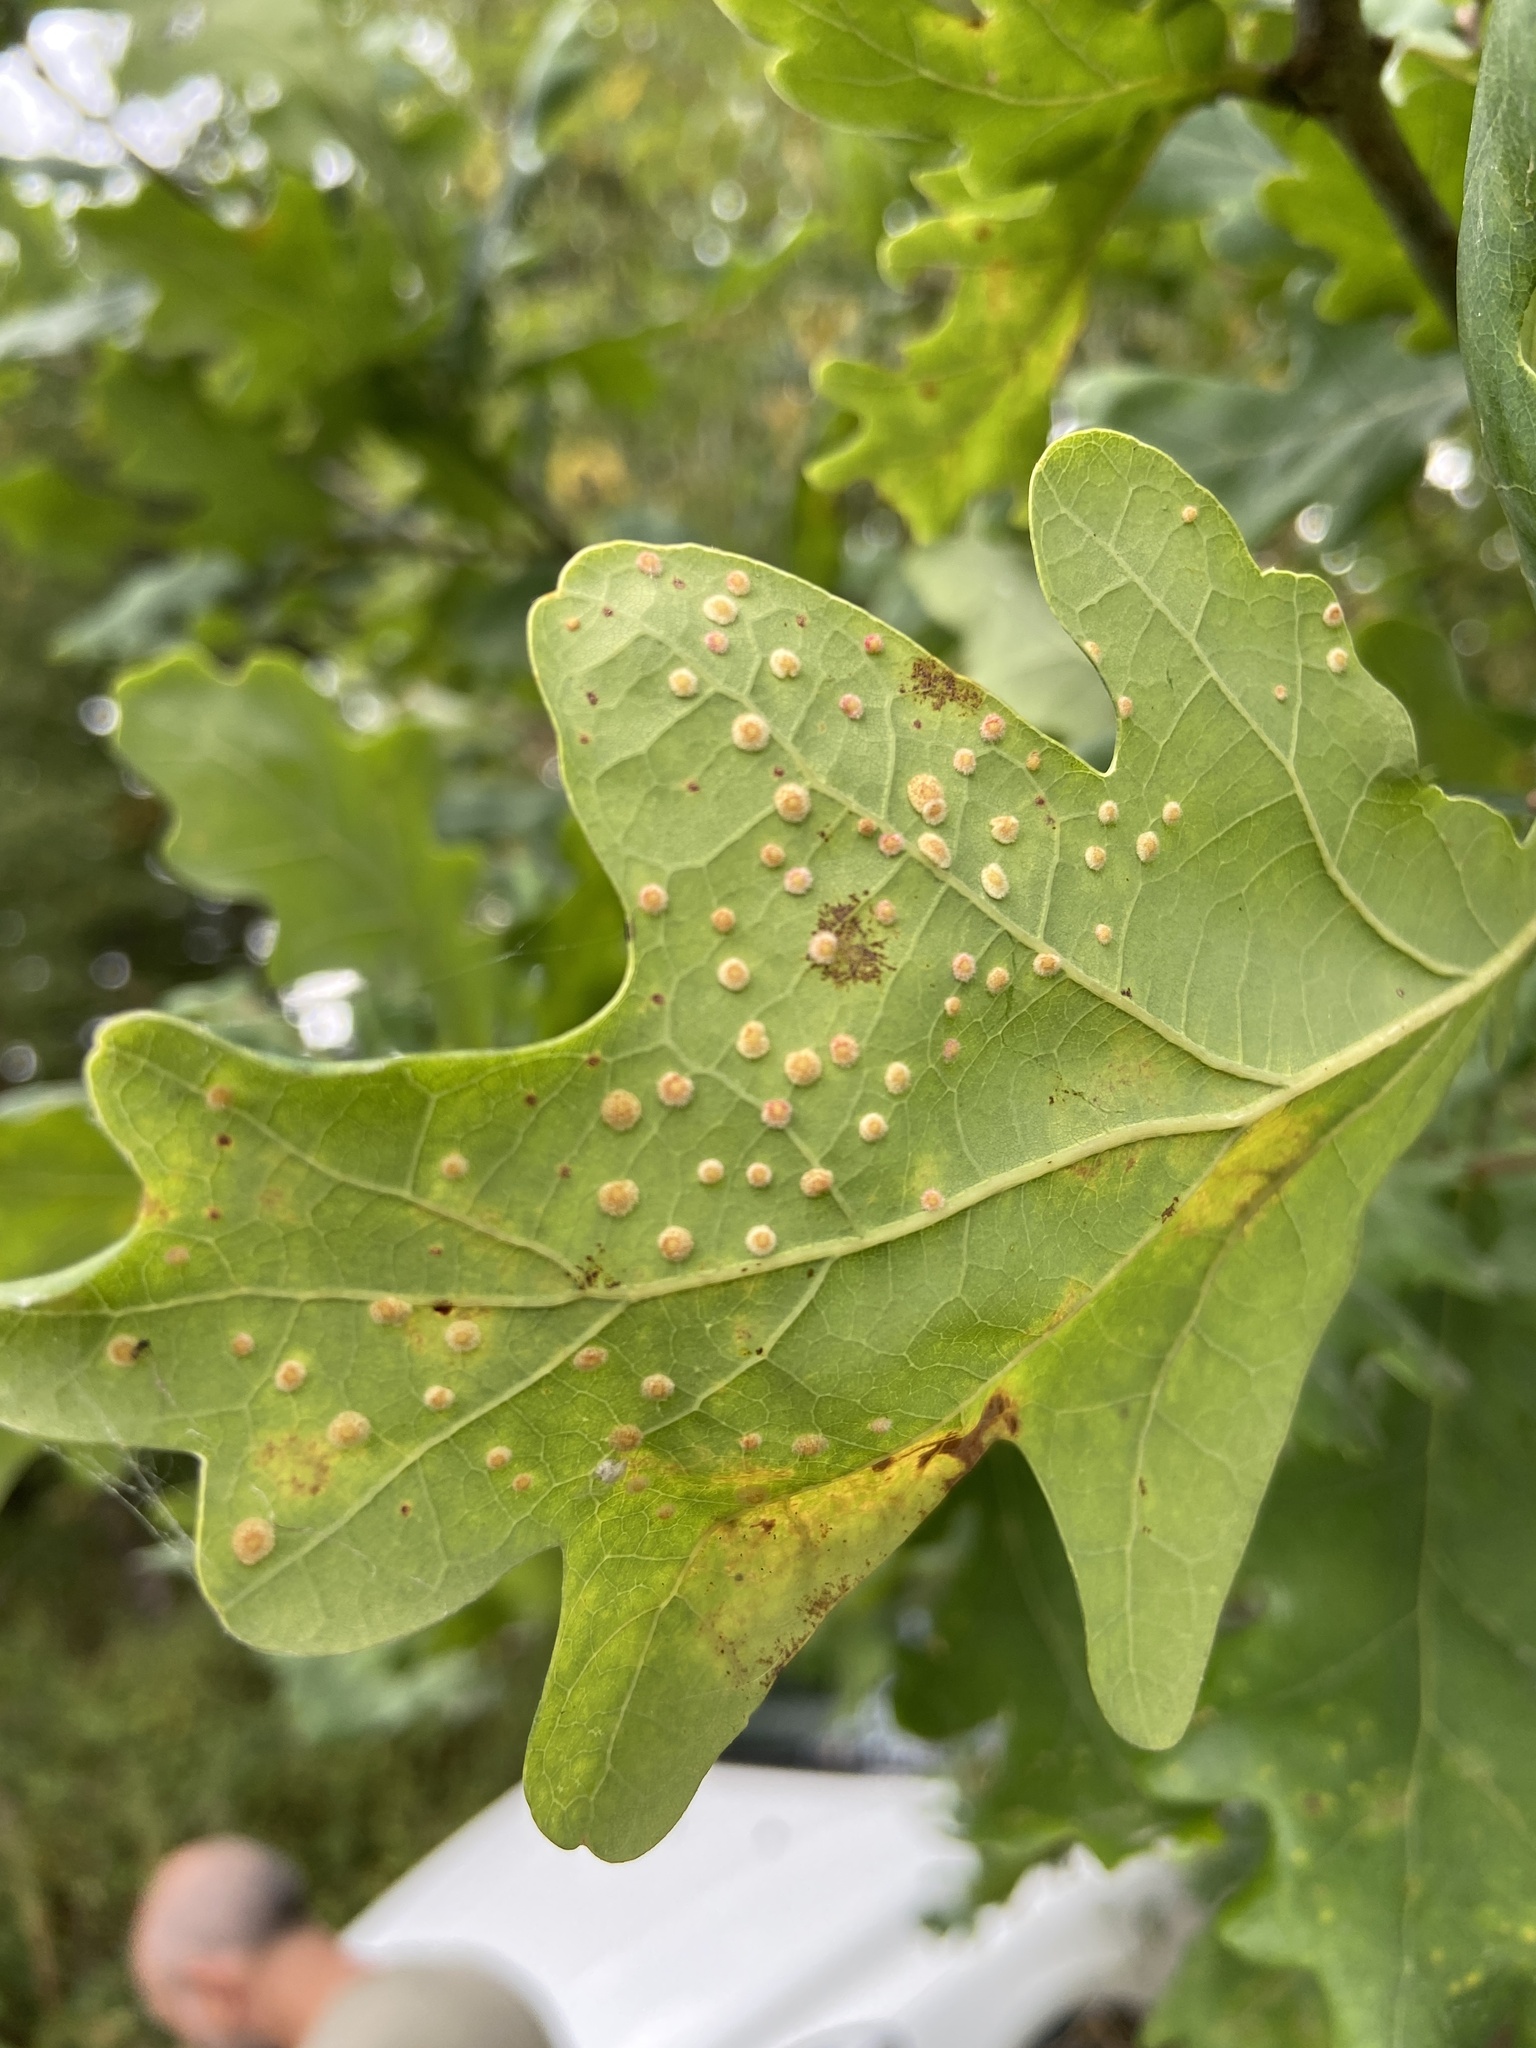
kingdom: Animalia
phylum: Arthropoda
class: Insecta
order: Hymenoptera
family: Cynipidae
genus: Neuroterus
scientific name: Neuroterus quercusbaccarum
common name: Common spangle gall
